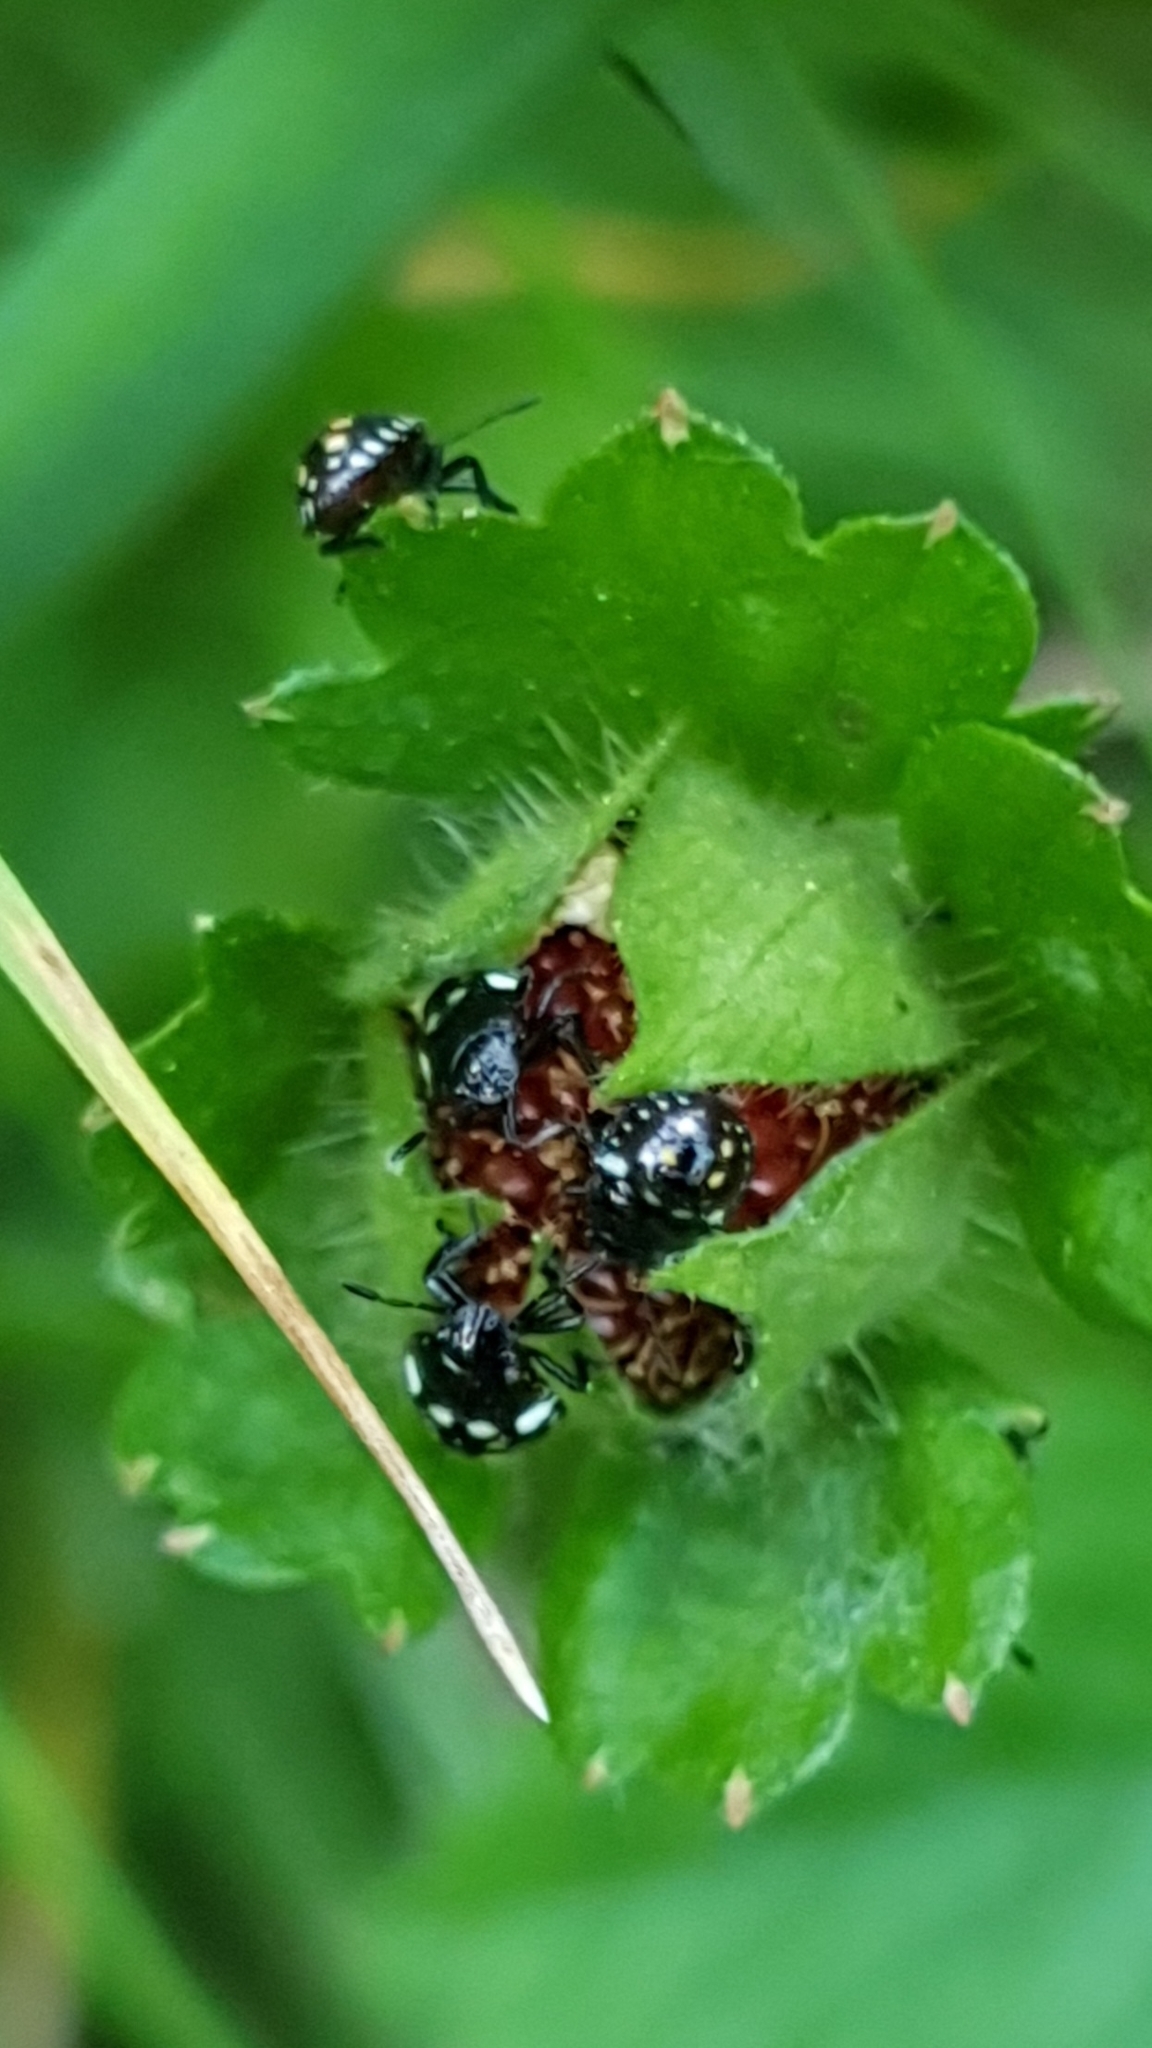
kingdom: Animalia
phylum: Arthropoda
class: Insecta
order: Hemiptera
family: Pentatomidae
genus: Nezara
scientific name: Nezara viridula
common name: Southern green stink bug
